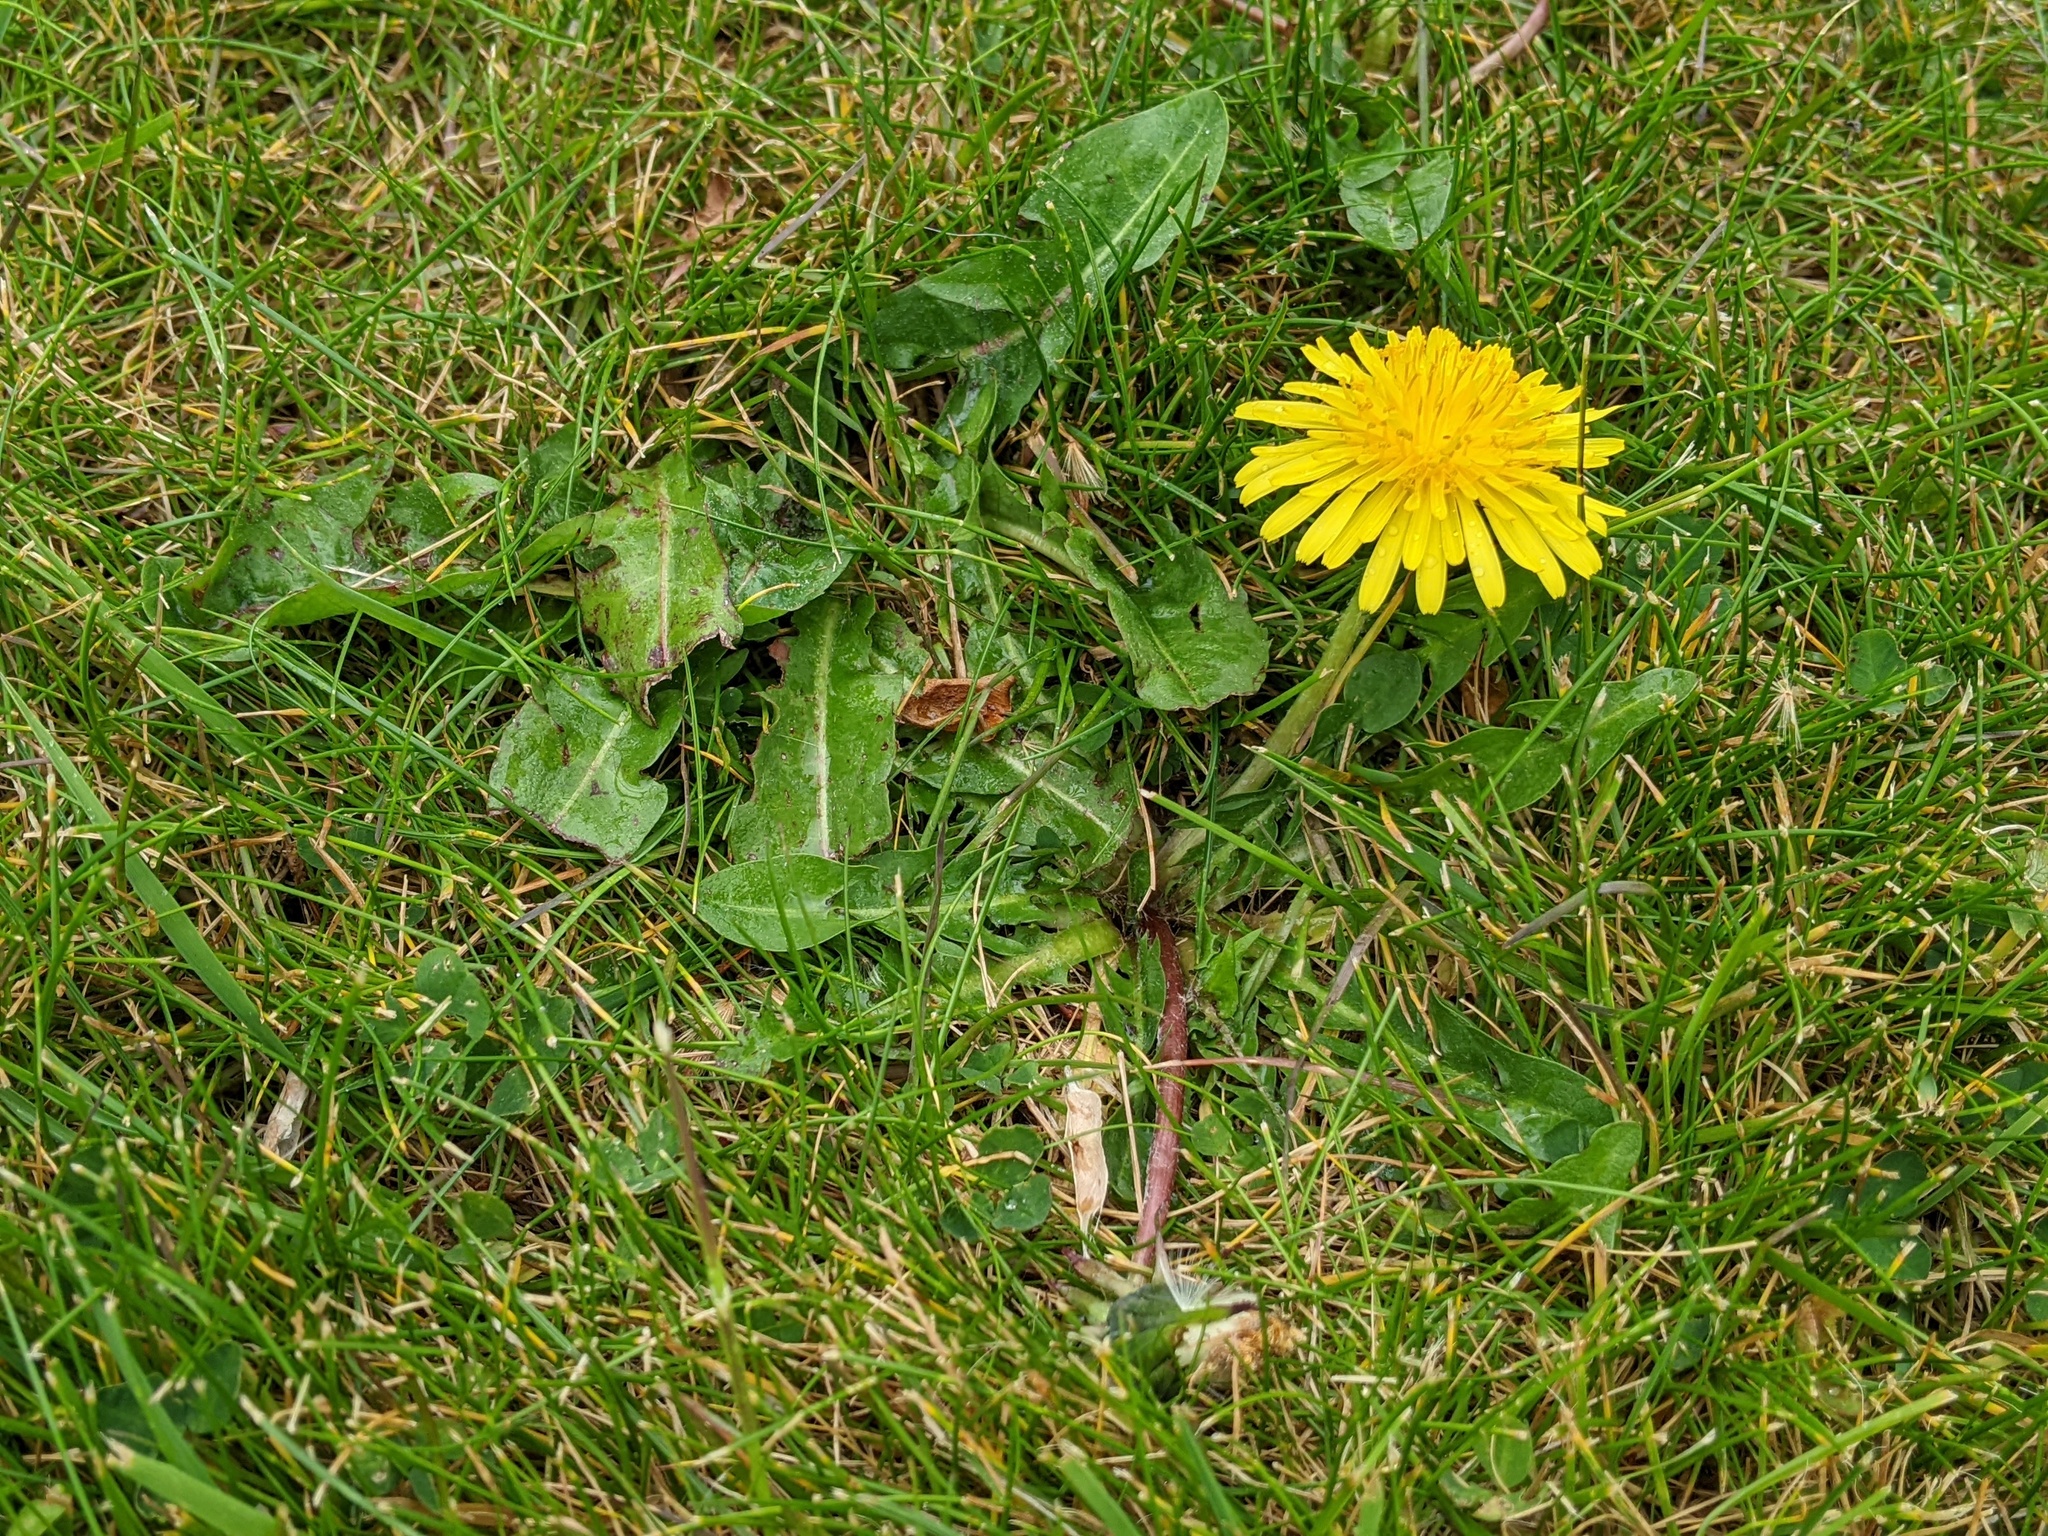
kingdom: Plantae
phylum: Tracheophyta
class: Magnoliopsida
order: Asterales
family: Asteraceae
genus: Taraxacum
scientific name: Taraxacum officinale
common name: Common dandelion
